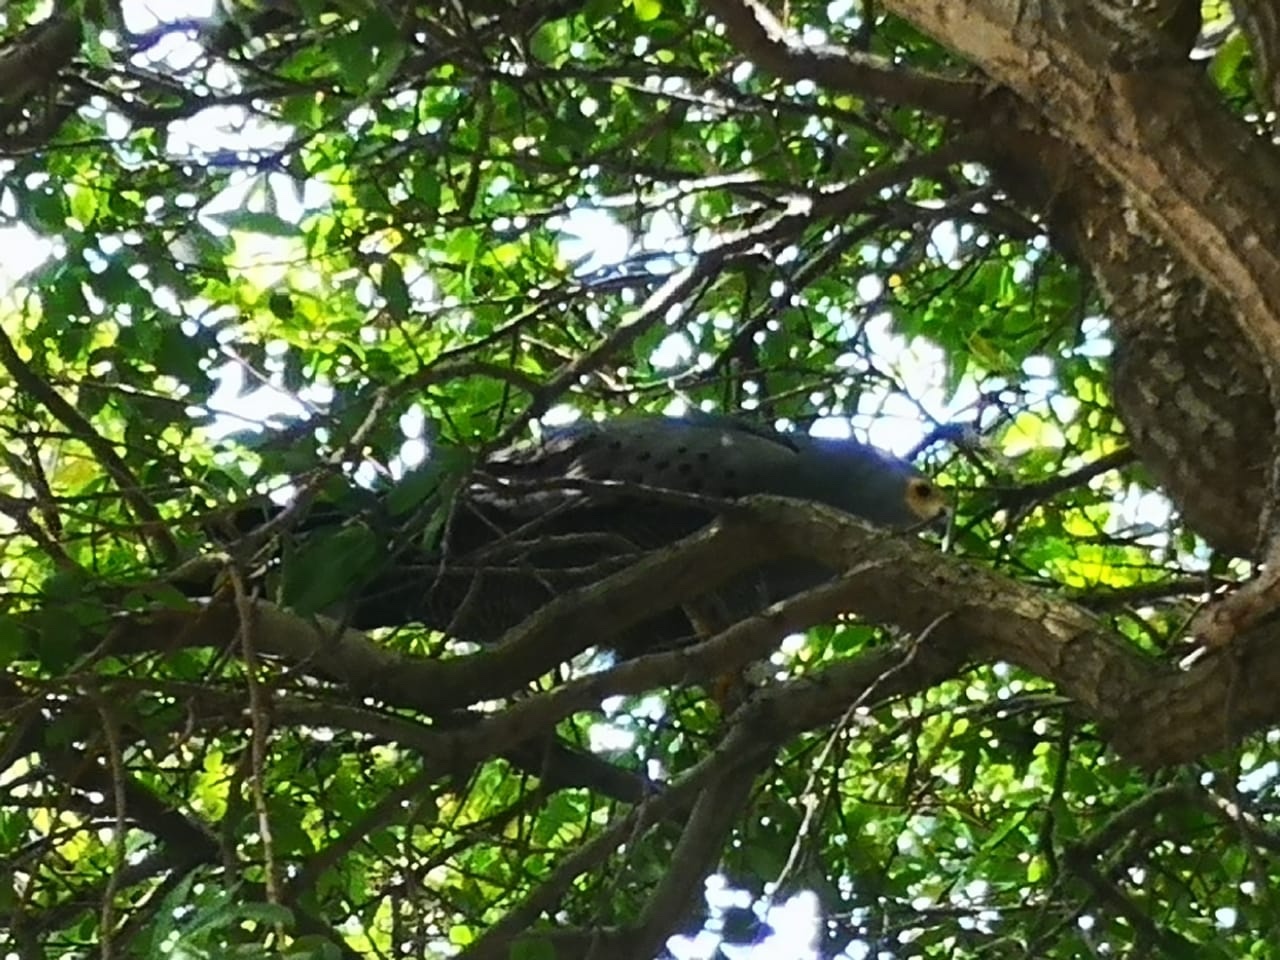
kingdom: Animalia
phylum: Chordata
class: Aves
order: Accipitriformes
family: Accipitridae
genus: Polyboroides
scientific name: Polyboroides typus
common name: African harrier-hawk
